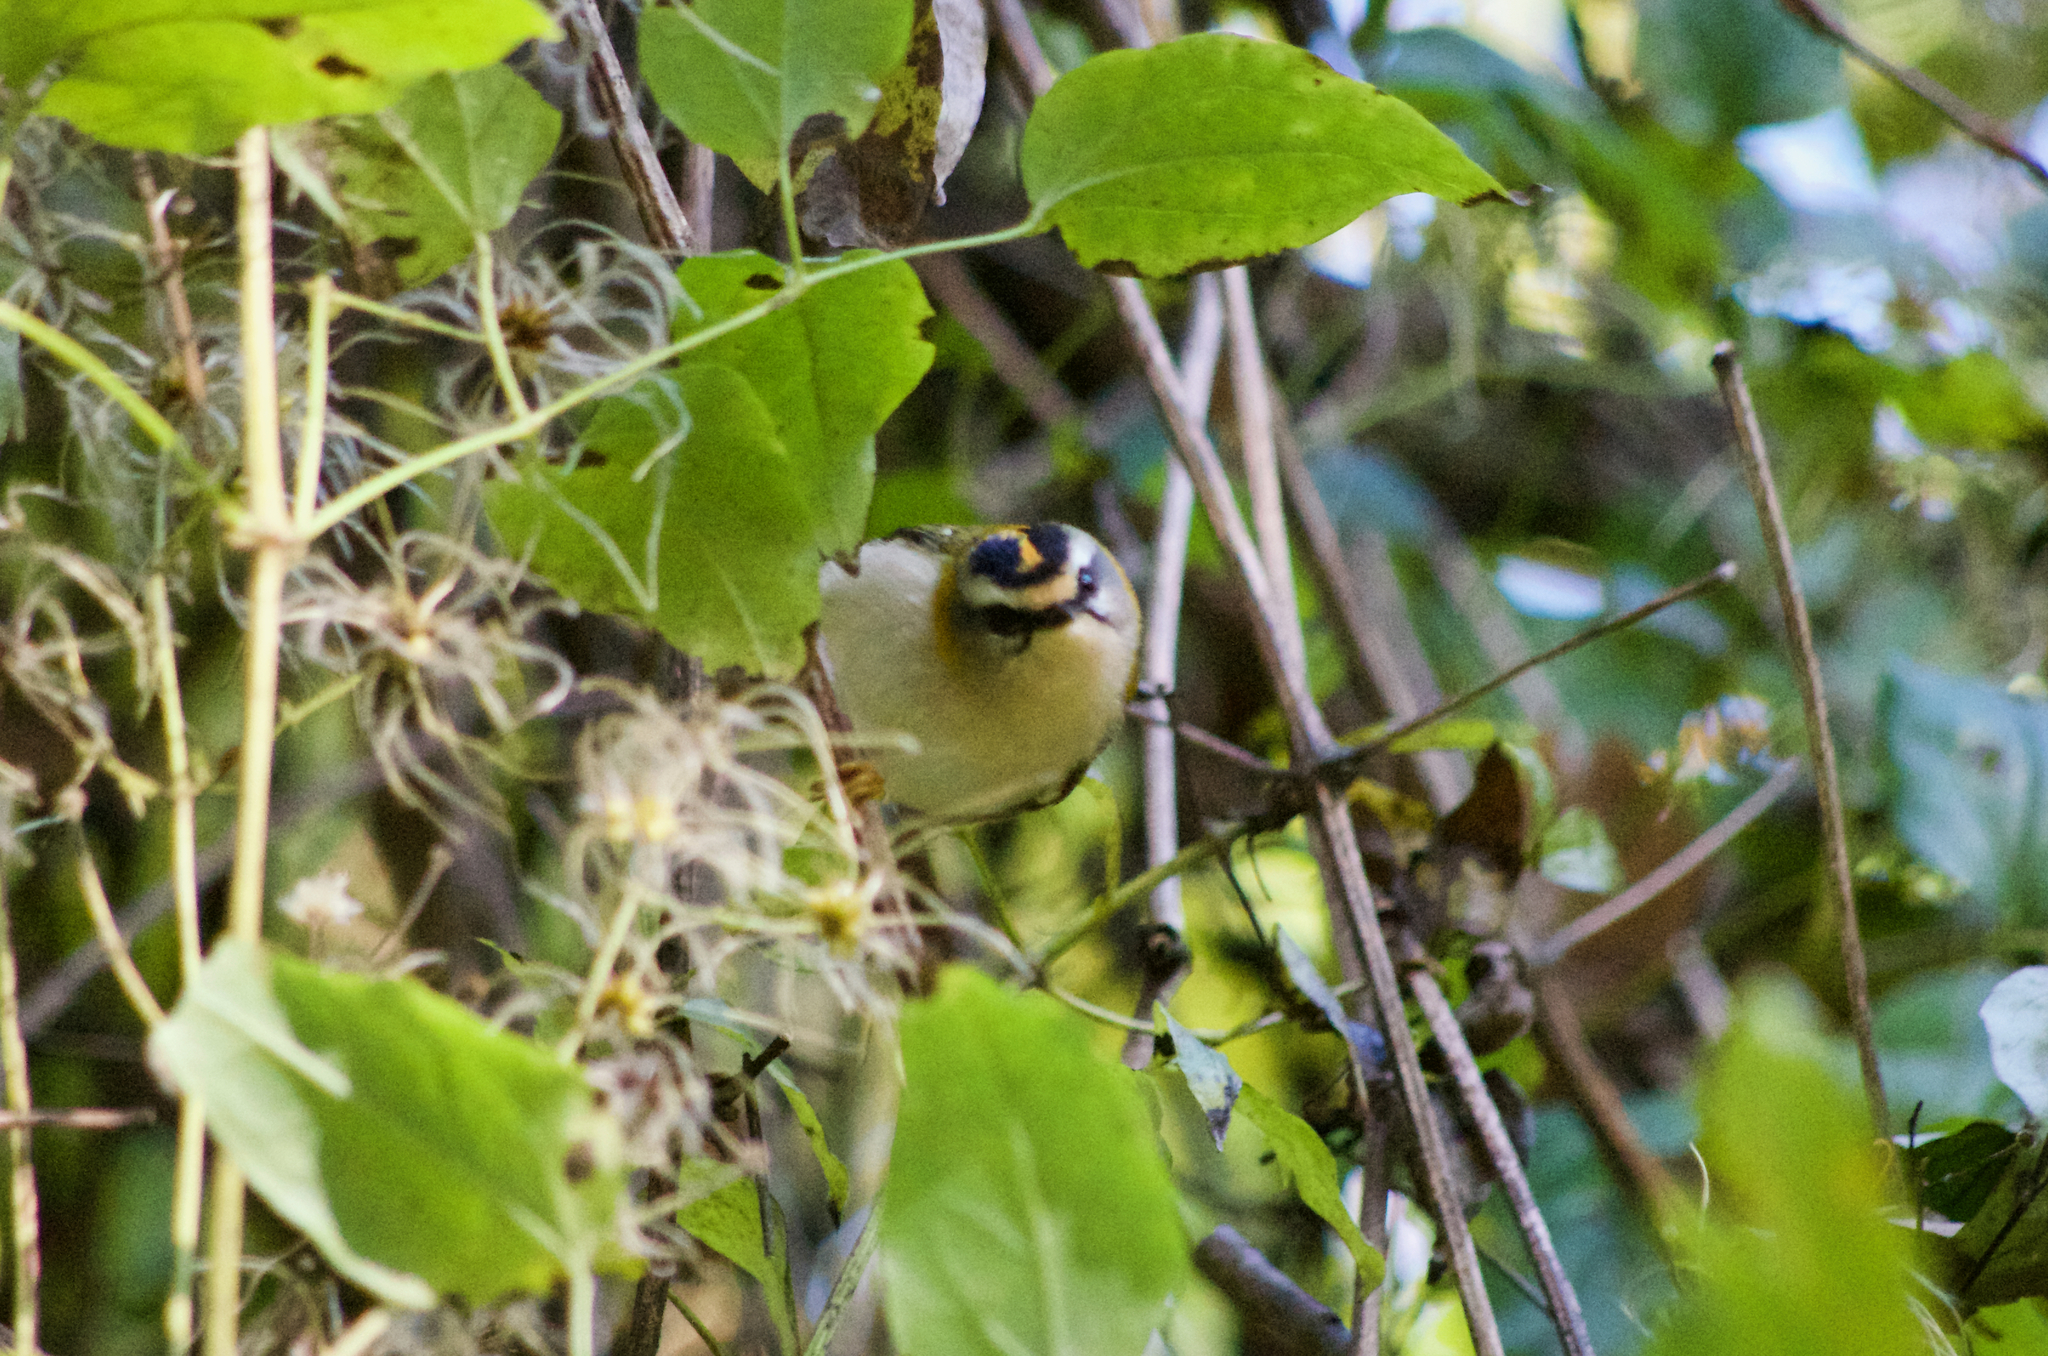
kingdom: Animalia
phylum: Chordata
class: Aves
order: Passeriformes
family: Regulidae
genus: Regulus
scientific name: Regulus ignicapilla
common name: Firecrest
